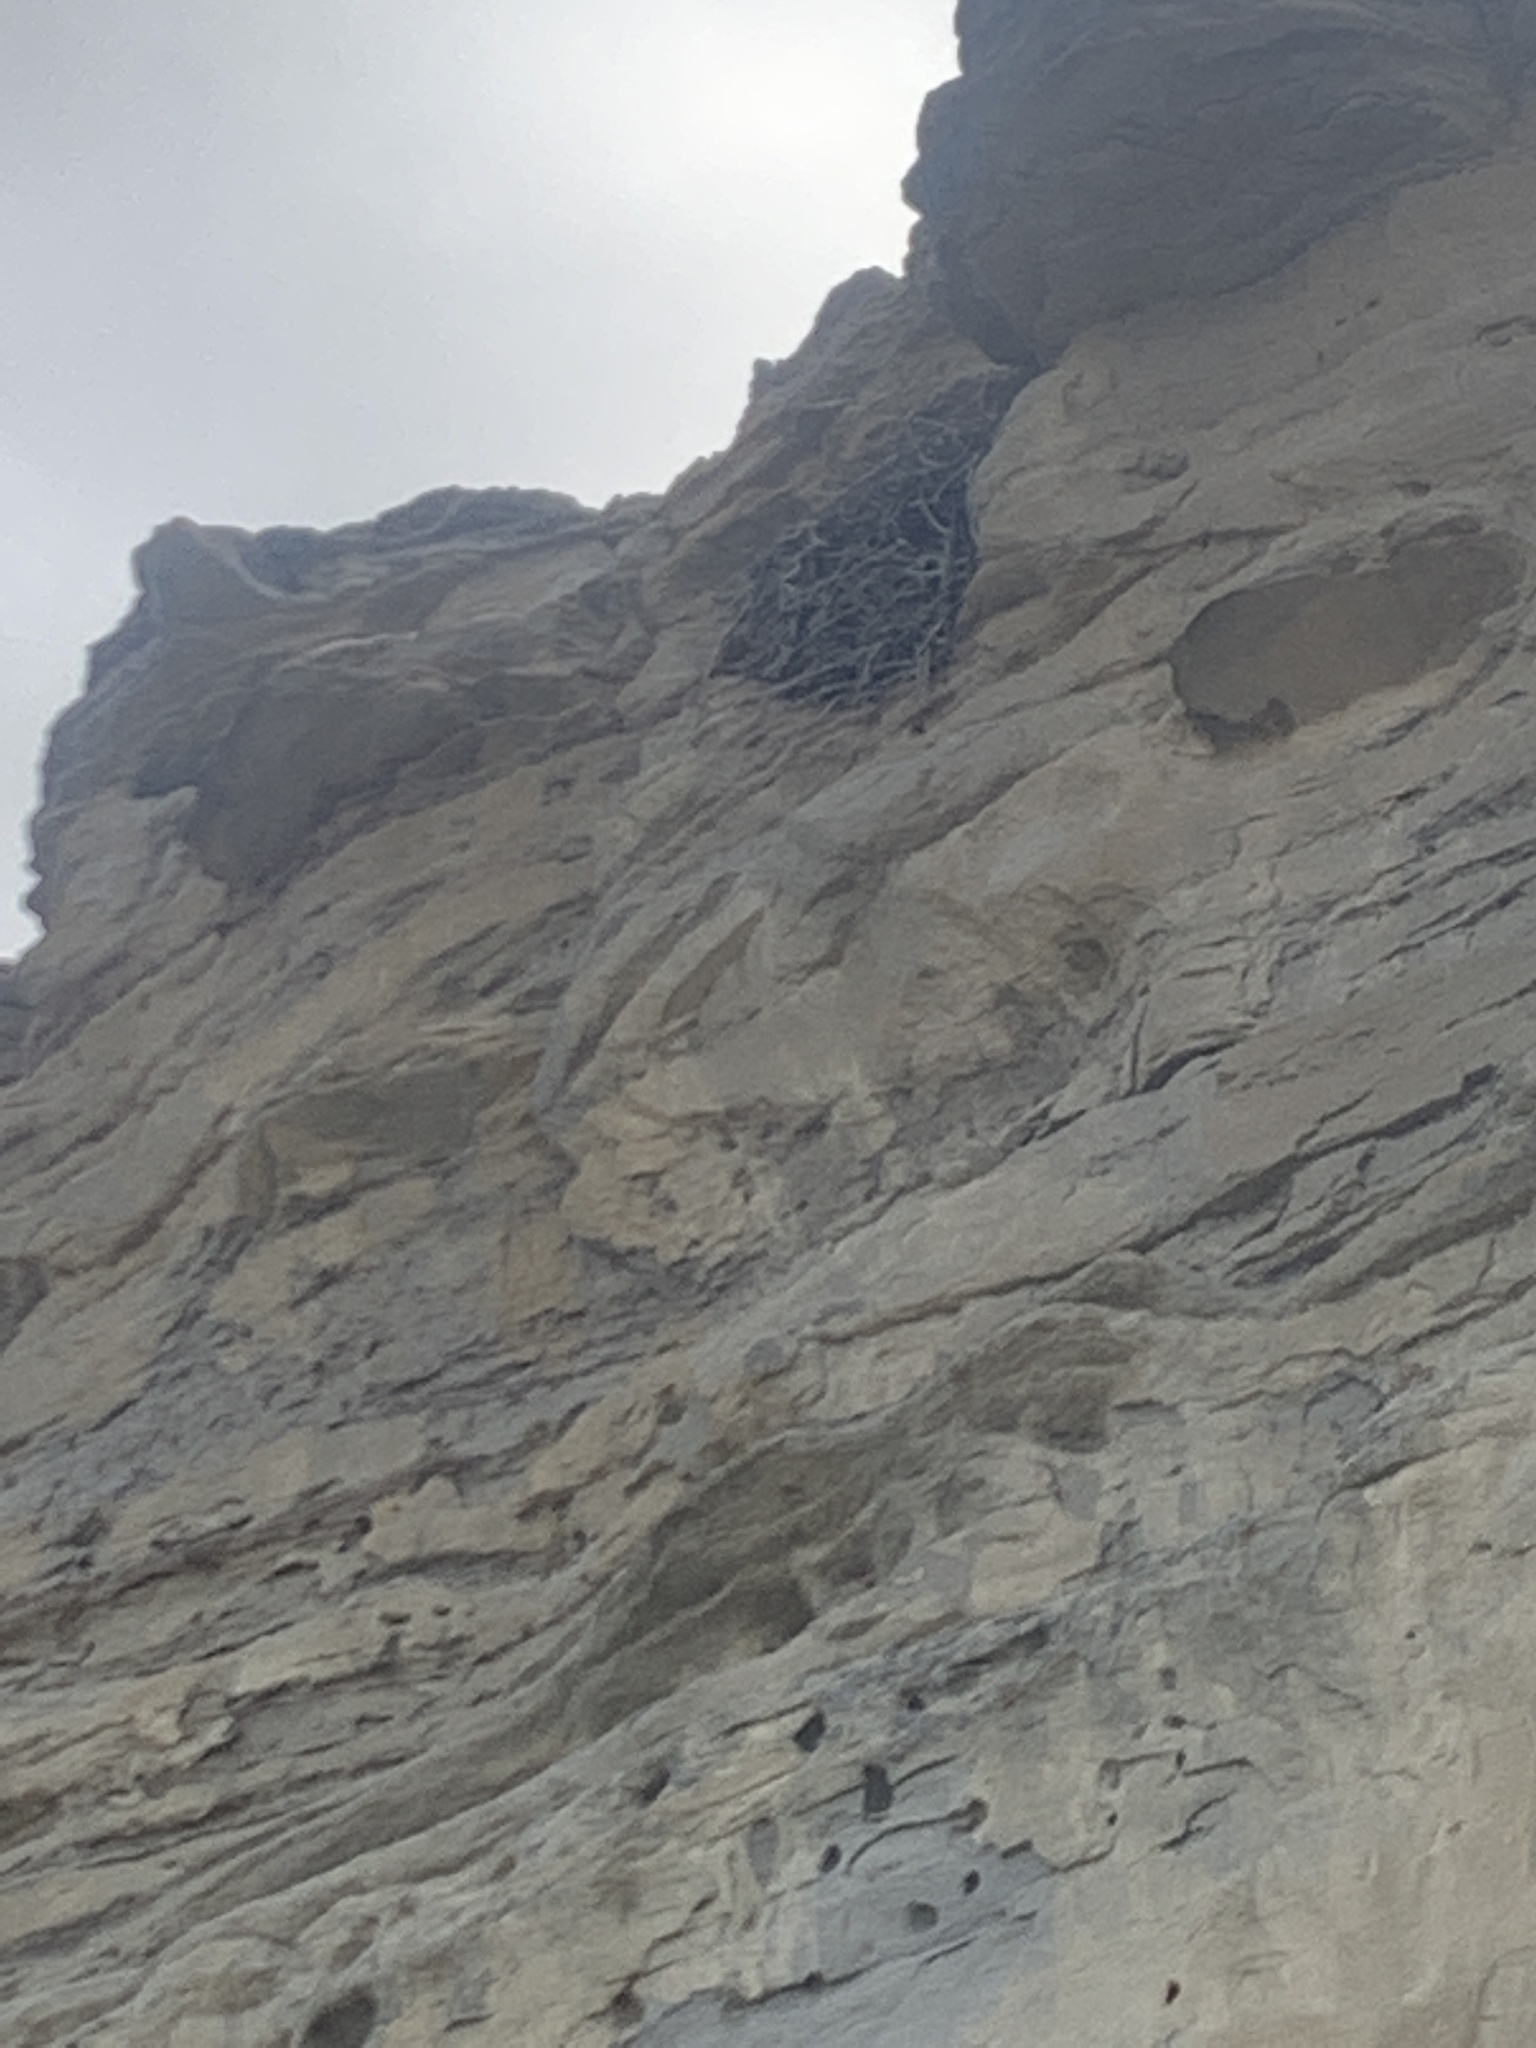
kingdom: Animalia
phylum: Chordata
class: Aves
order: Accipitriformes
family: Accipitridae
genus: Buteo
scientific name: Buteo regalis
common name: Ferruginous hawk
